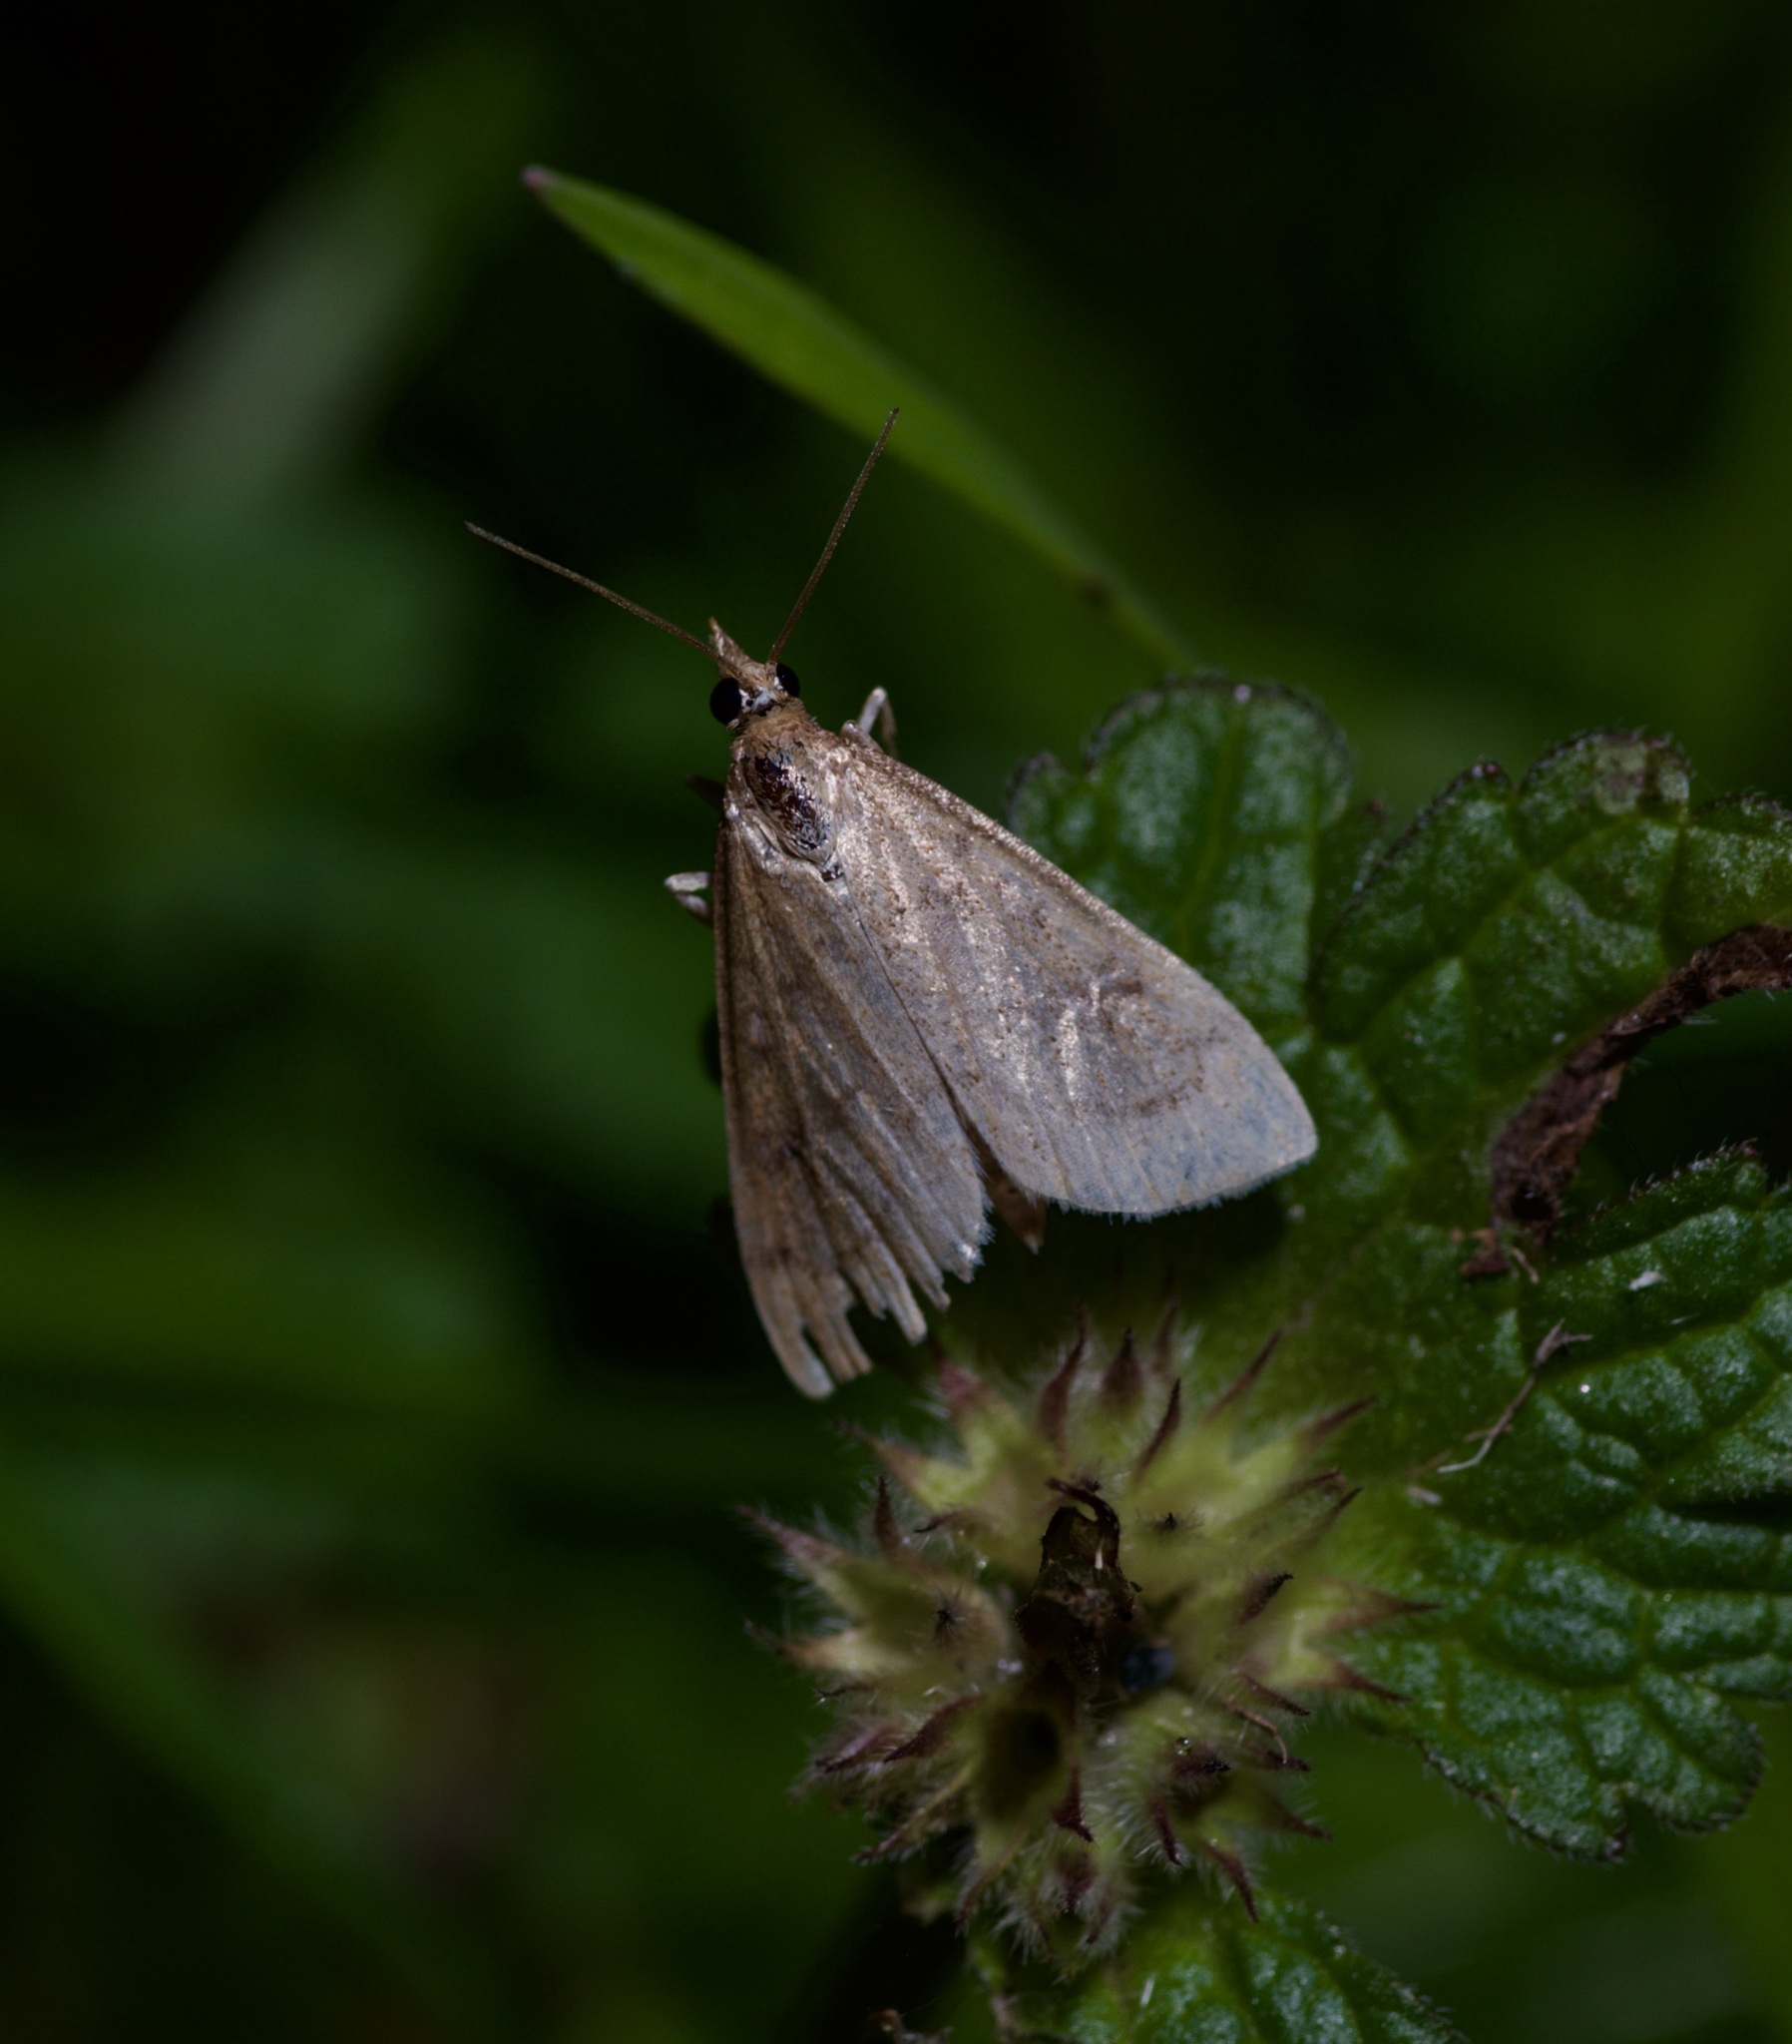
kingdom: Animalia
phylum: Arthropoda
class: Insecta
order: Lepidoptera
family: Crambidae
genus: Udea
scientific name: Udea rubigalis
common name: Celery leaftier moth
